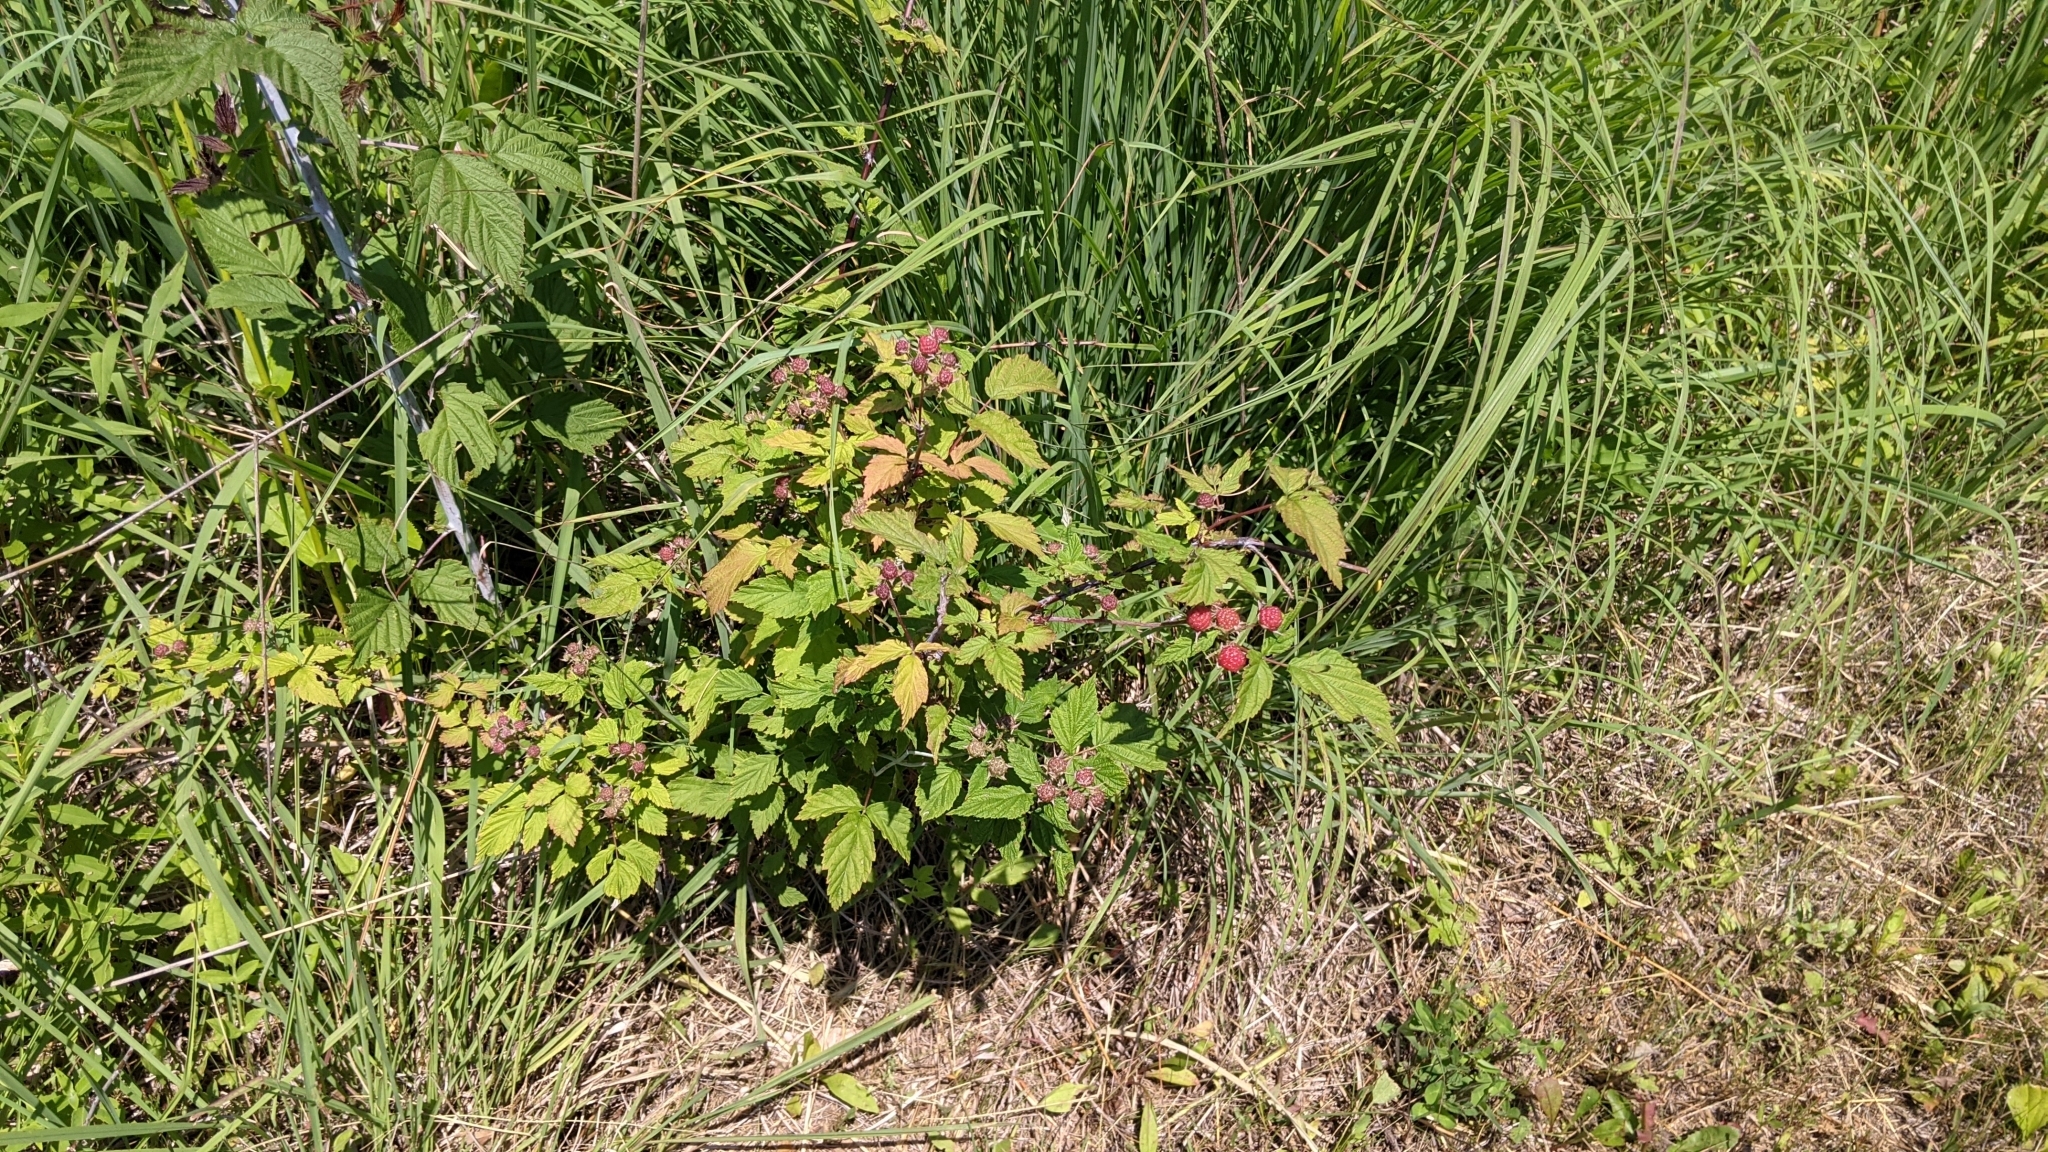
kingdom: Plantae
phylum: Tracheophyta
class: Magnoliopsida
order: Rosales
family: Rosaceae
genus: Rubus
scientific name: Rubus occidentalis
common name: Black raspberry
